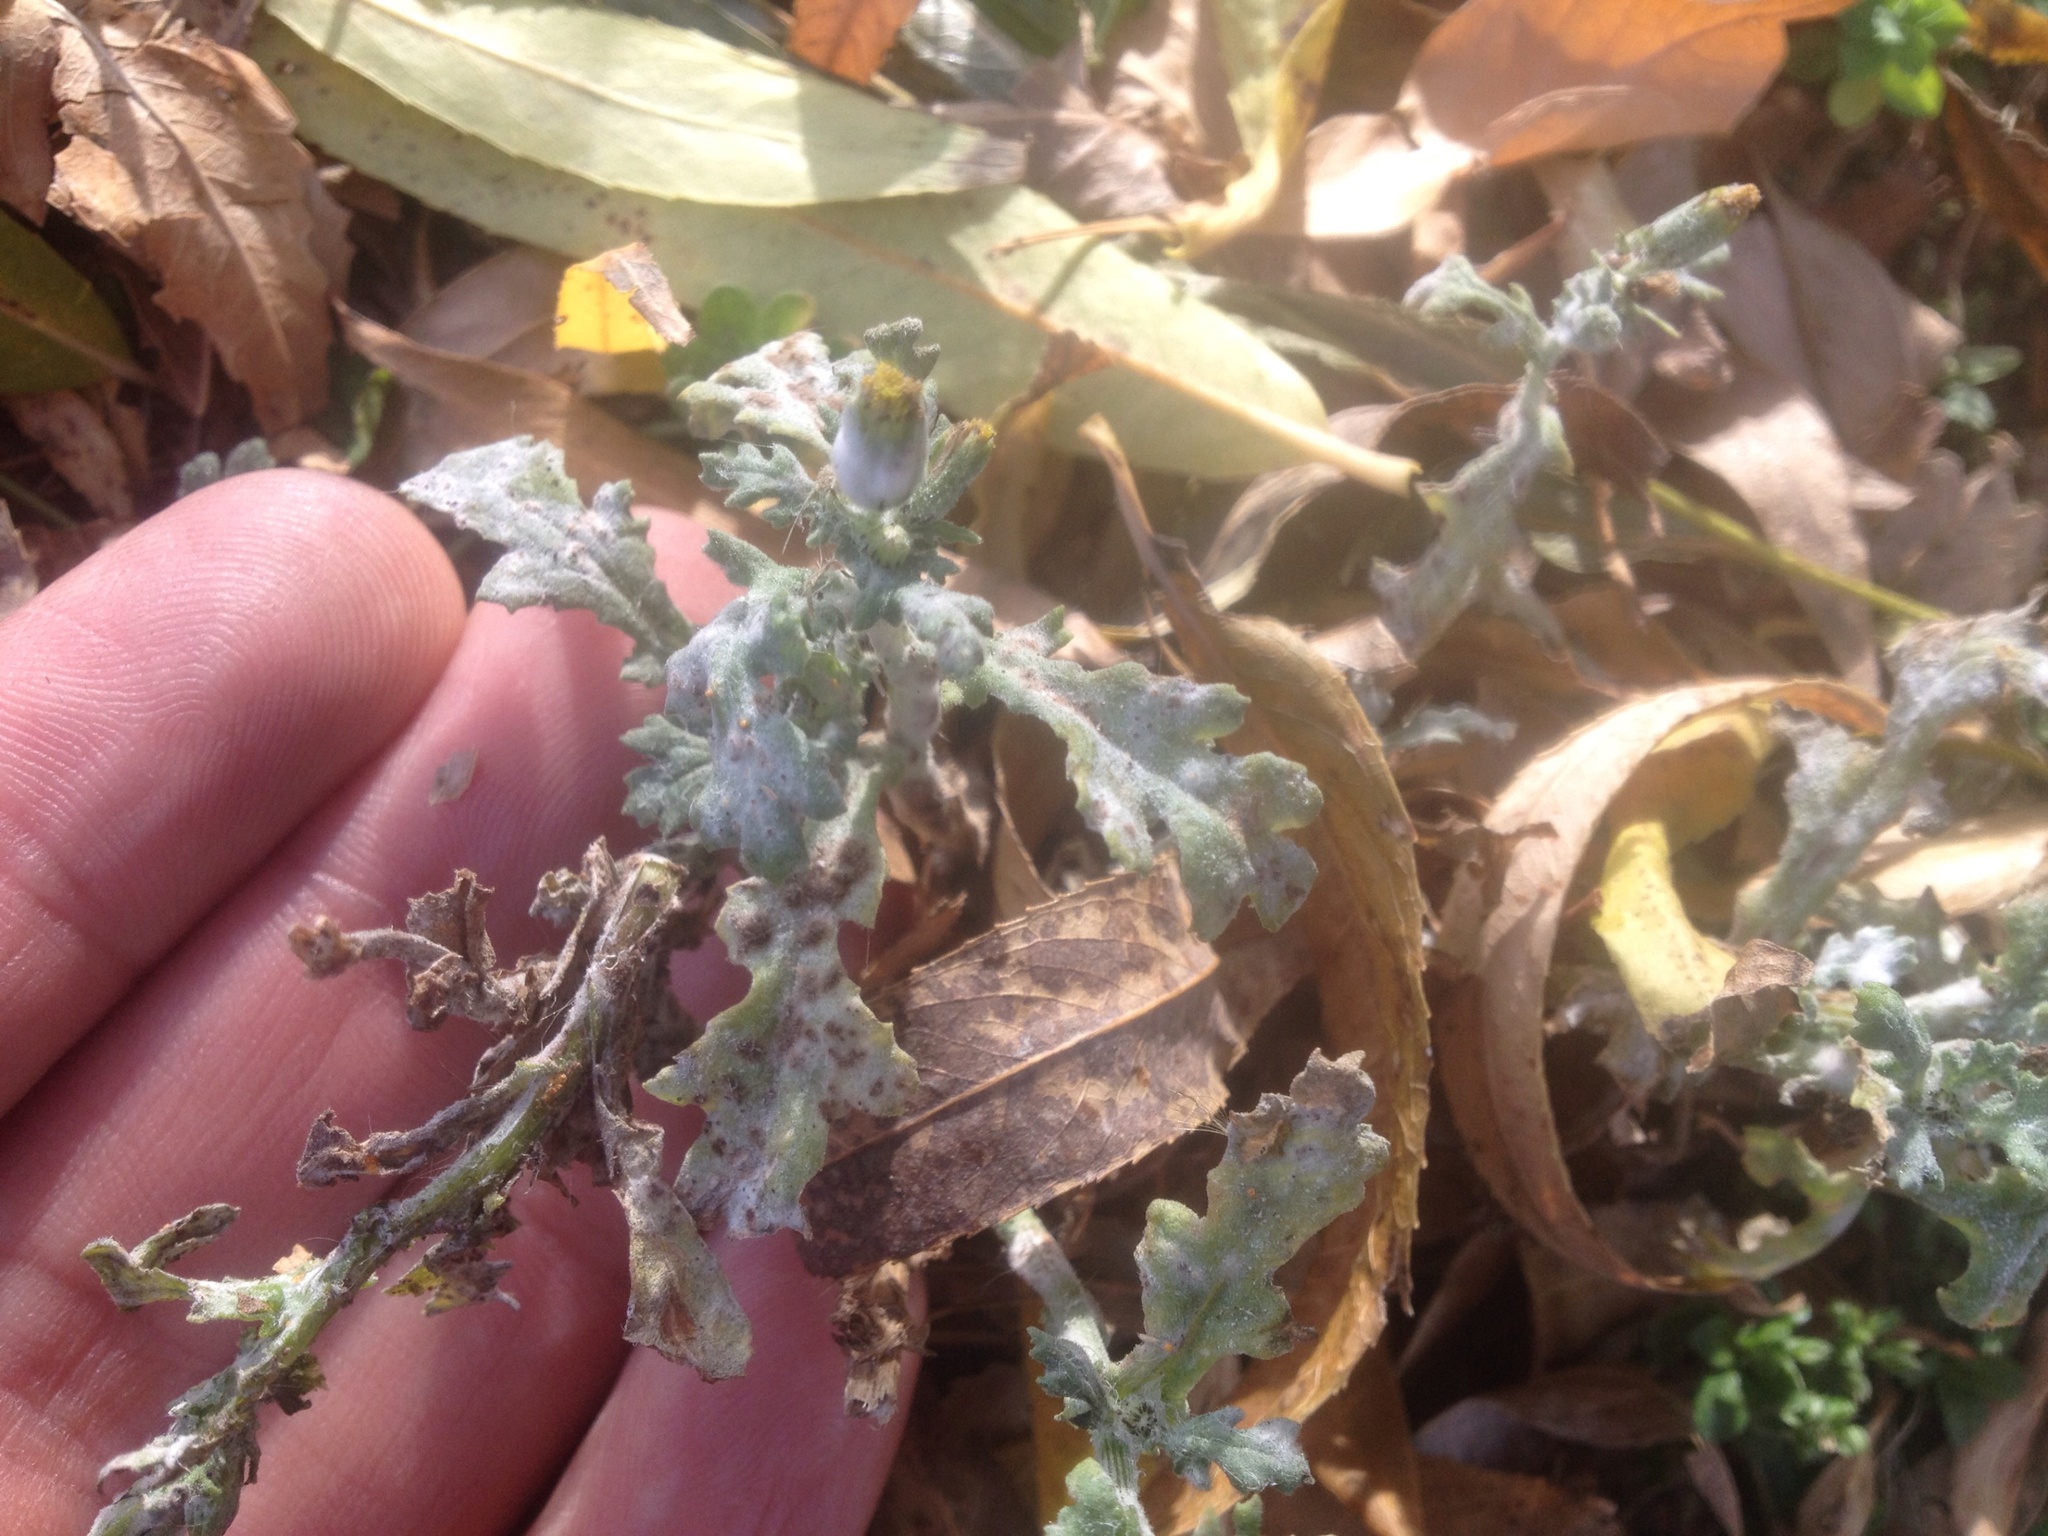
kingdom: Fungi
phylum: Ascomycota
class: Leotiomycetes
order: Helotiales
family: Erysiphaceae
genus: Neoerysiphe
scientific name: Neoerysiphe kerribeeensis
